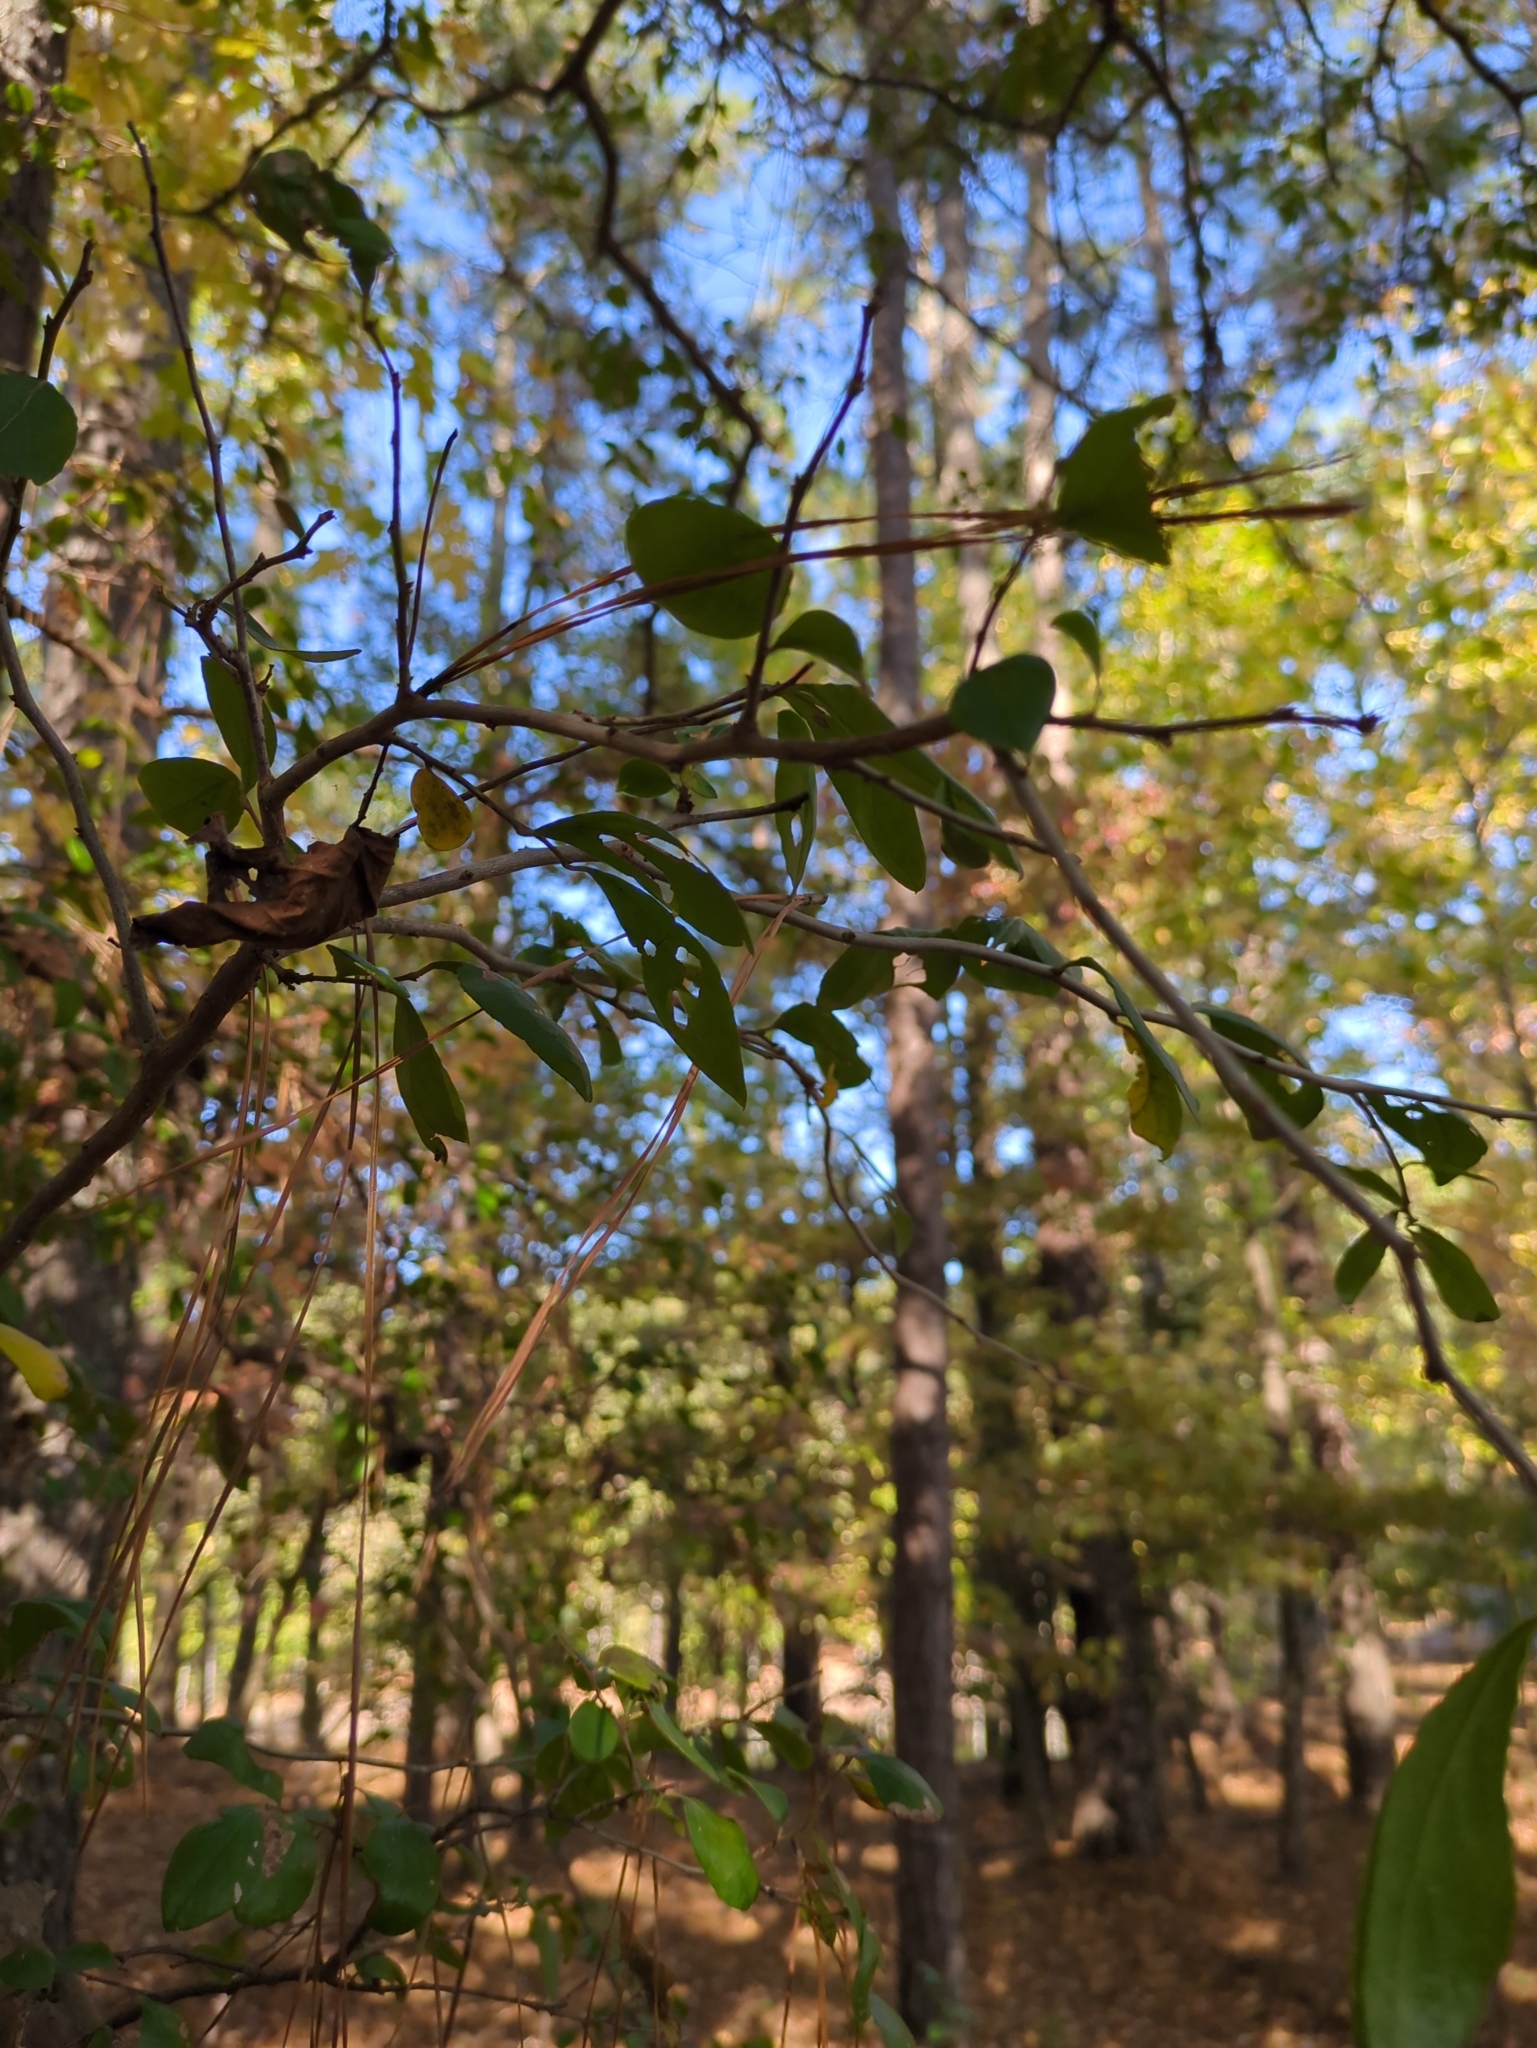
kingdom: Plantae
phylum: Tracheophyta
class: Magnoliopsida
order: Ericales
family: Ericaceae
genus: Vaccinium
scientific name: Vaccinium arboreum
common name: Farkleberry
